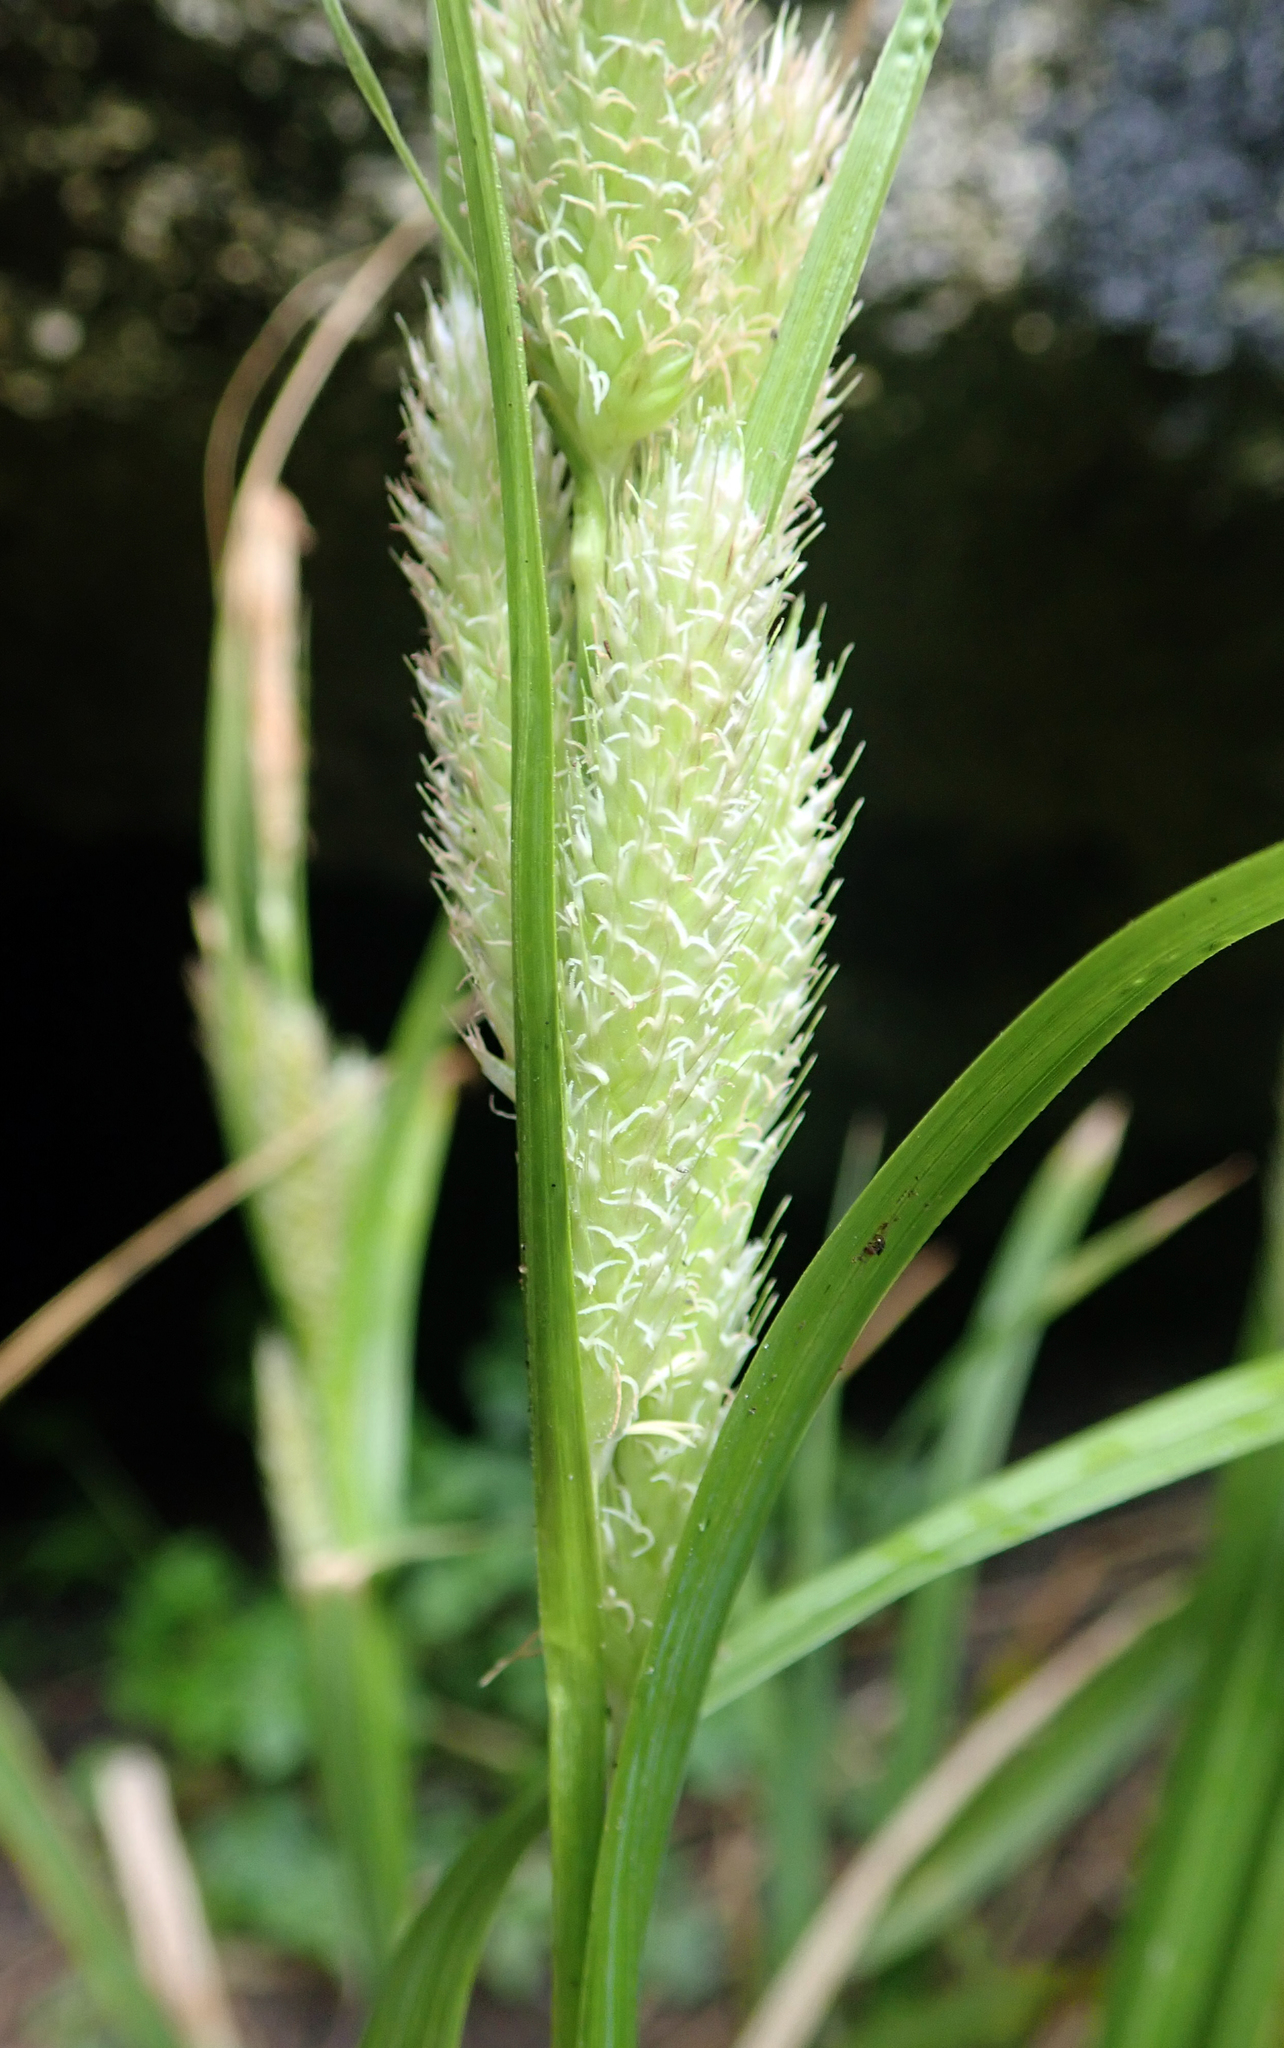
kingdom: Plantae
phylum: Tracheophyta
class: Liliopsida
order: Poales
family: Cyperaceae
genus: Carex
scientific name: Carex ventosa
